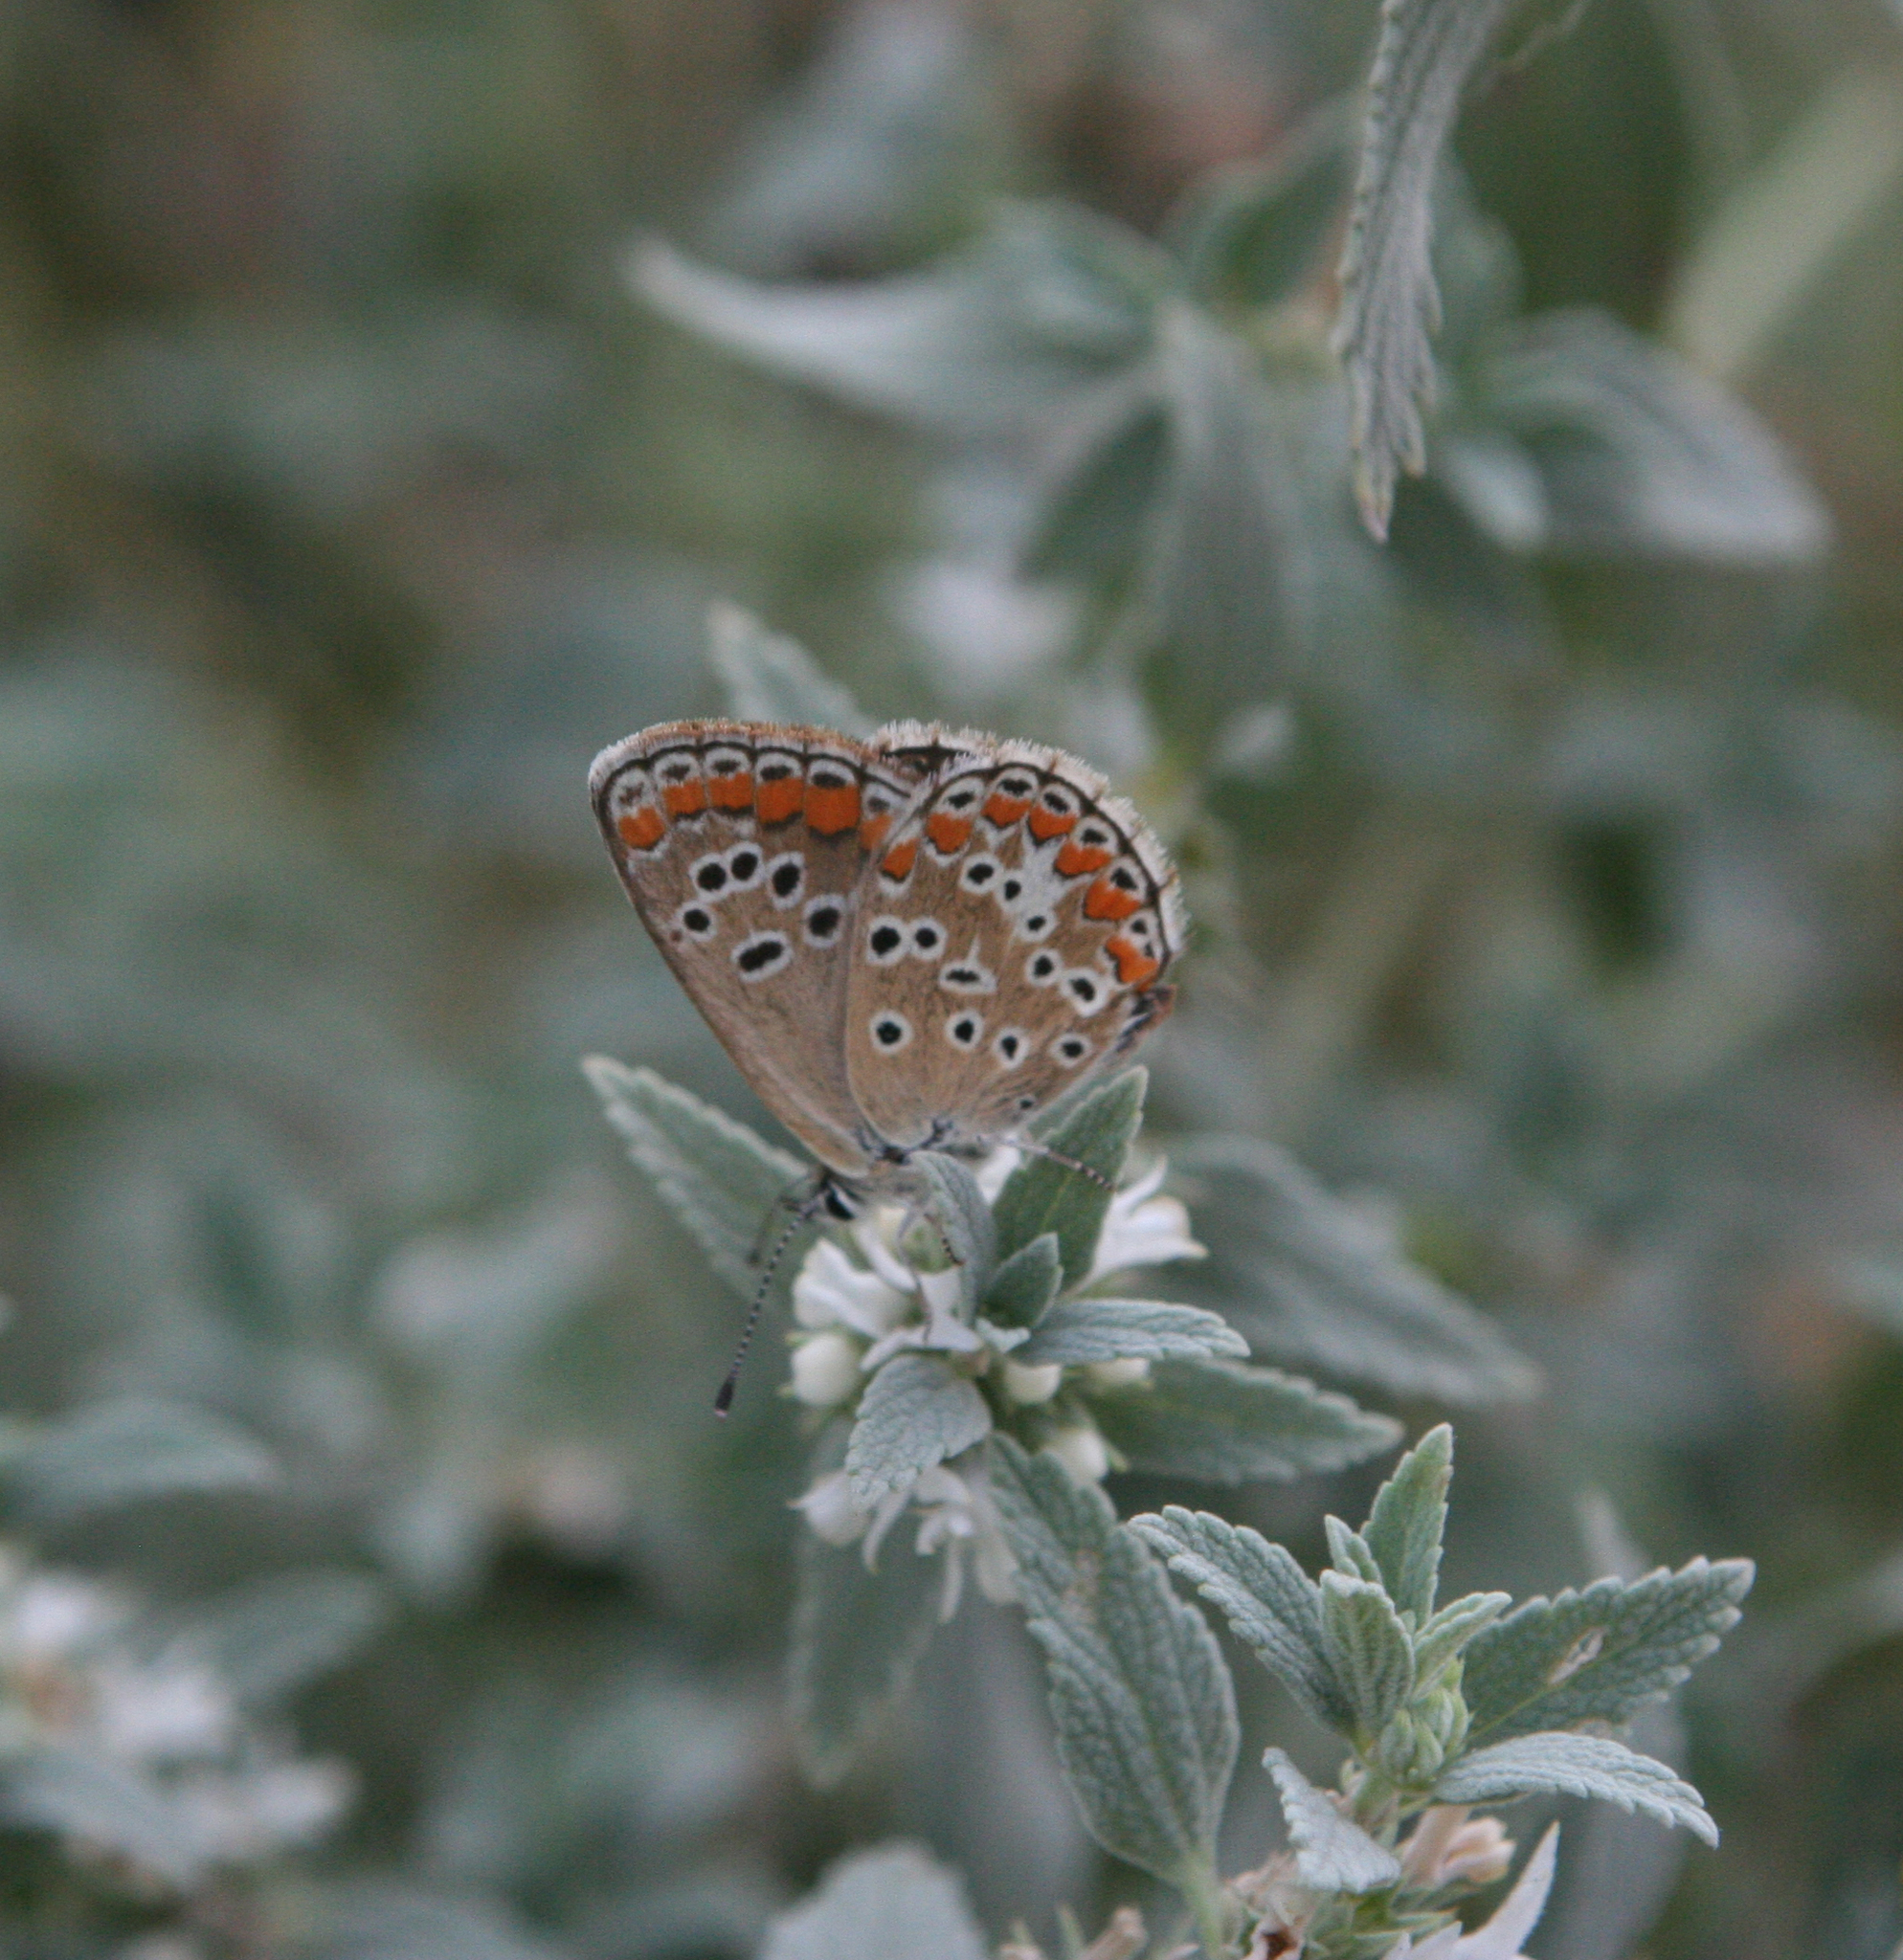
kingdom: Animalia
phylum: Arthropoda
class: Insecta
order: Lepidoptera
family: Lycaenidae
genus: Aricia
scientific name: Aricia agestis
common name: Brown argus
